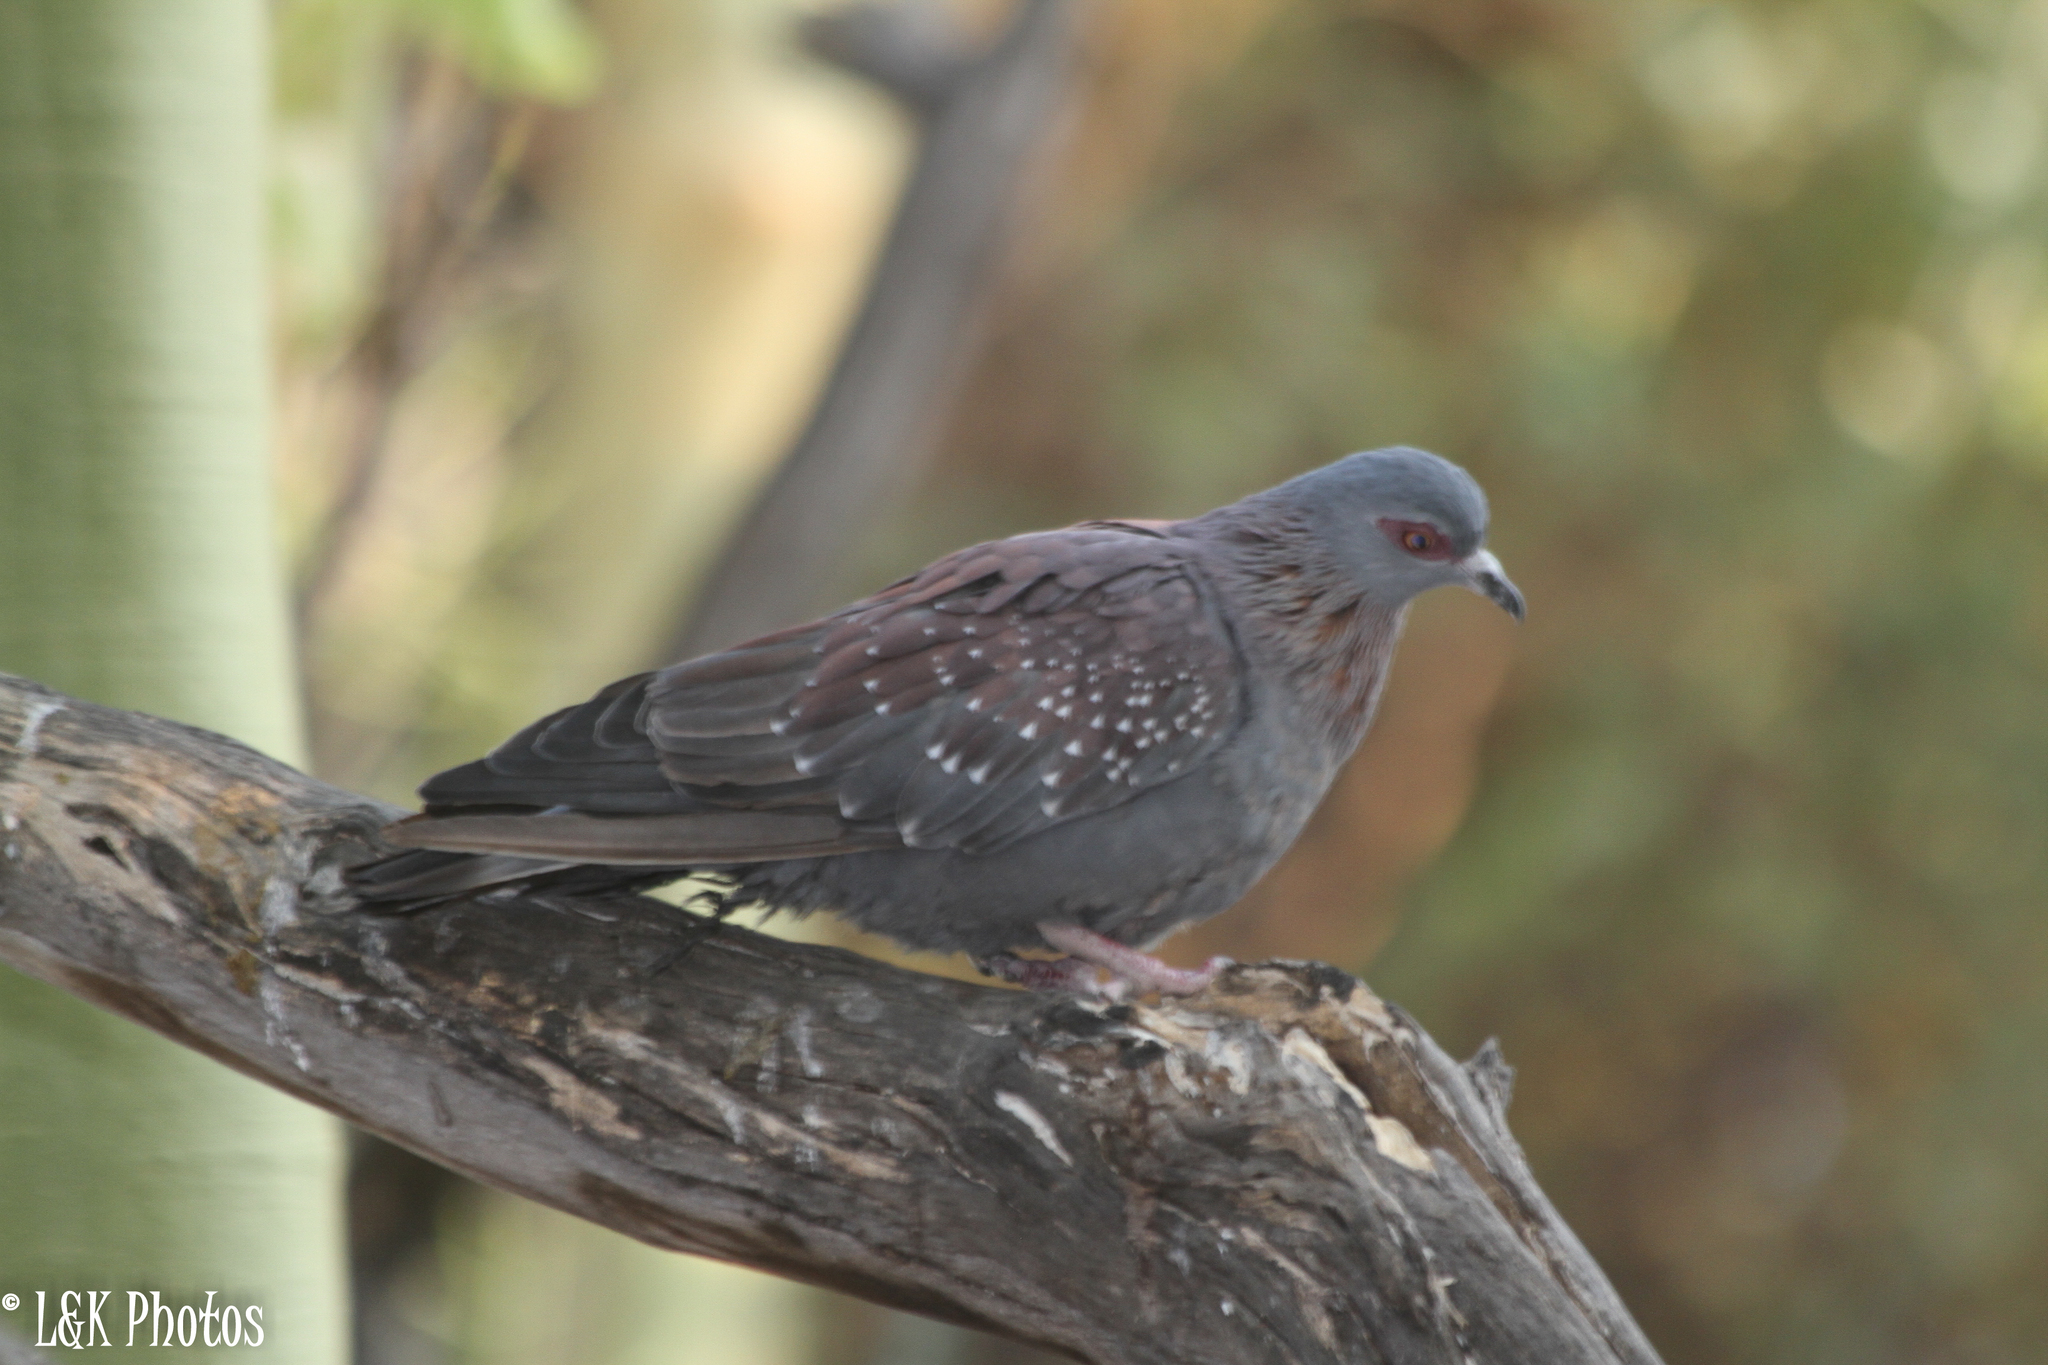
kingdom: Animalia
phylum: Chordata
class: Aves
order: Columbiformes
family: Columbidae
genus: Columba
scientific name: Columba guinea
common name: Speckled pigeon
